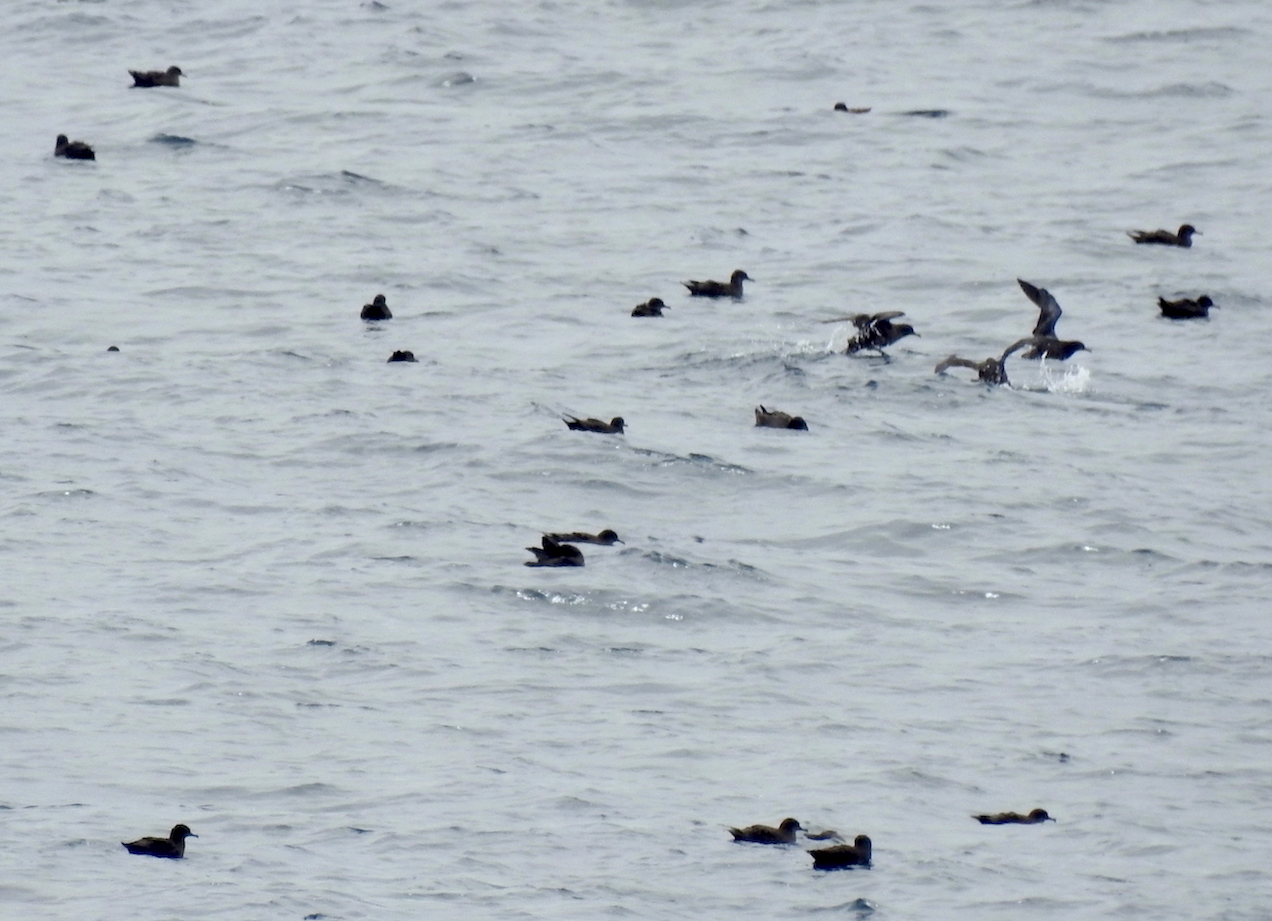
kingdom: Animalia
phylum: Chordata
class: Aves
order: Procellariiformes
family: Procellariidae
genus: Puffinus
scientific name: Puffinus griseus
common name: Sooty shearwater
